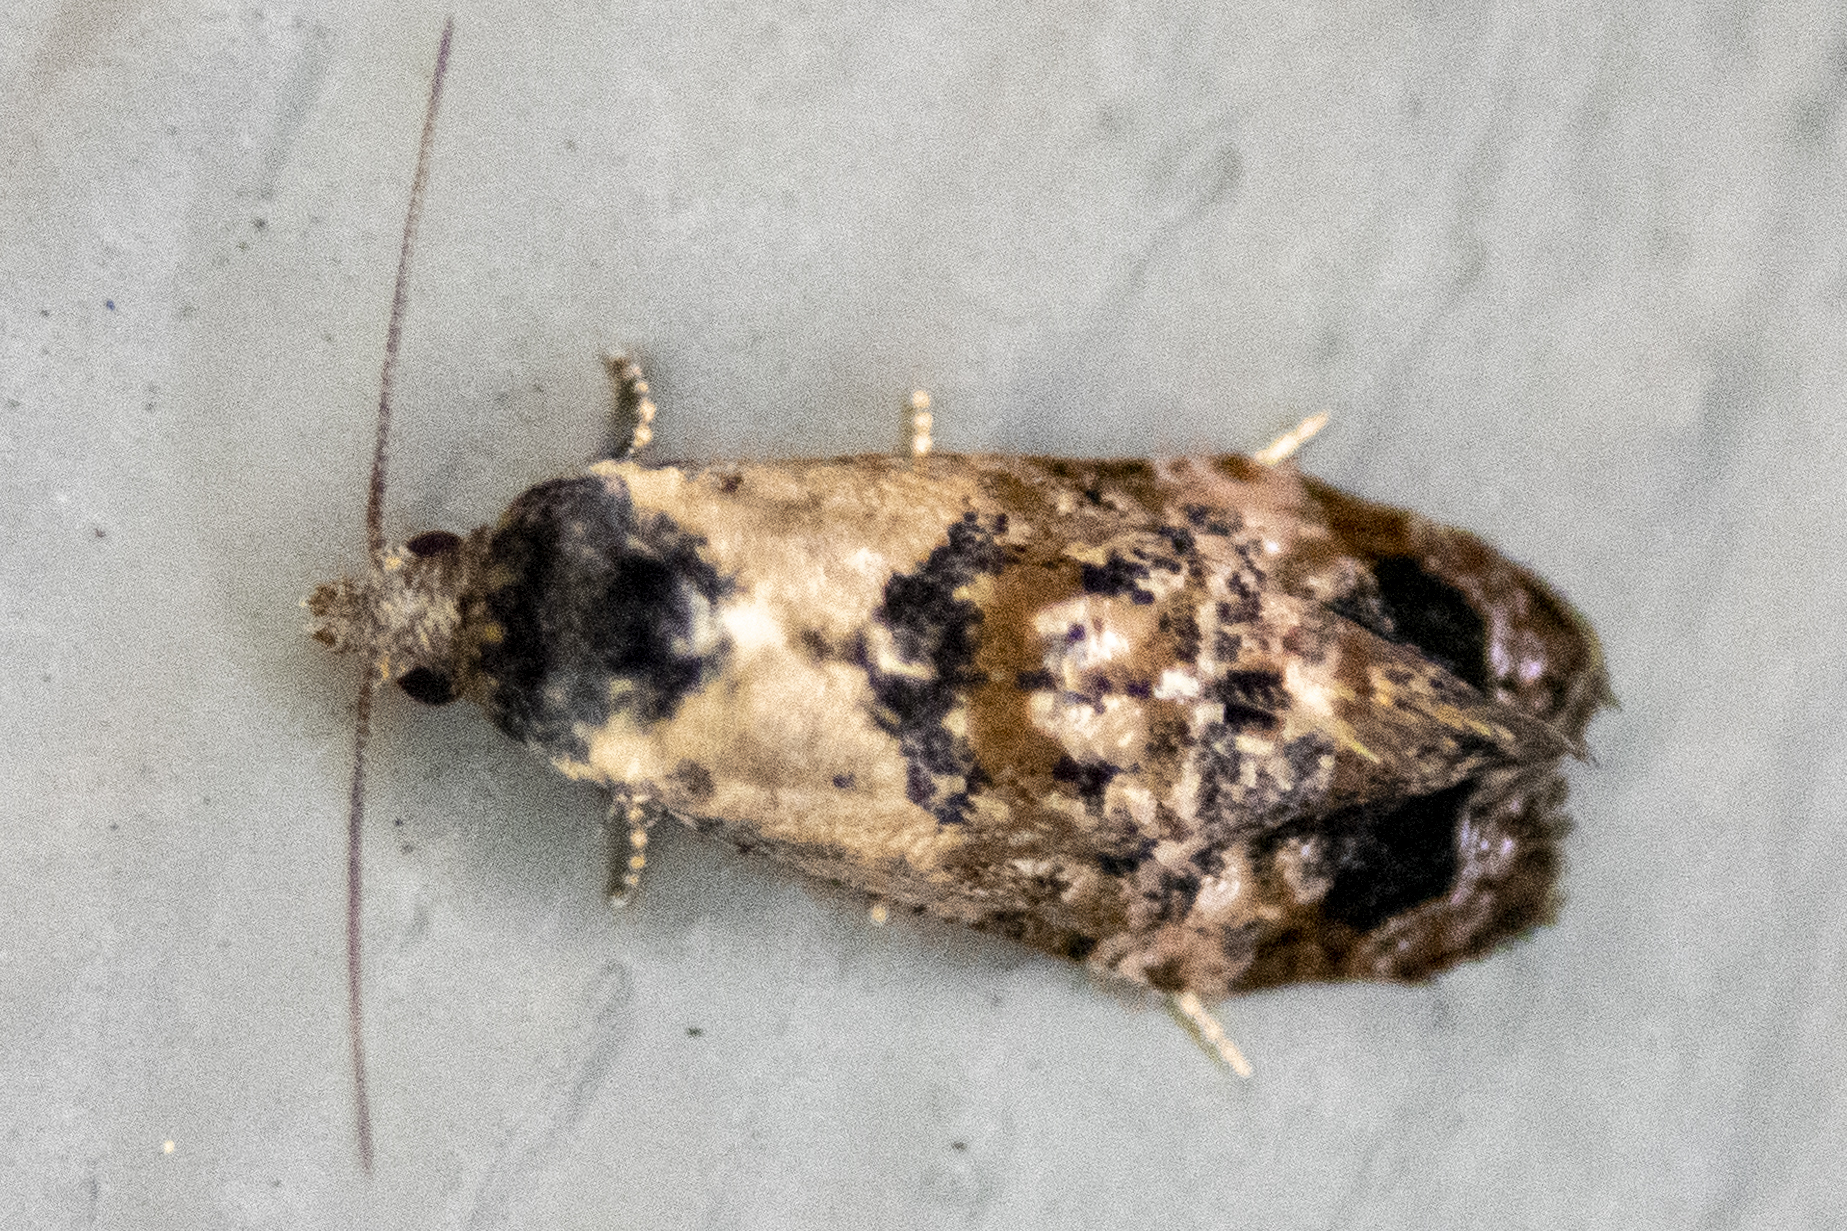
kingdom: Animalia
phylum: Arthropoda
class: Insecta
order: Lepidoptera
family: Tortricidae
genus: Cochylis
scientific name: Cochylis Cochylichroa hoffmanana
